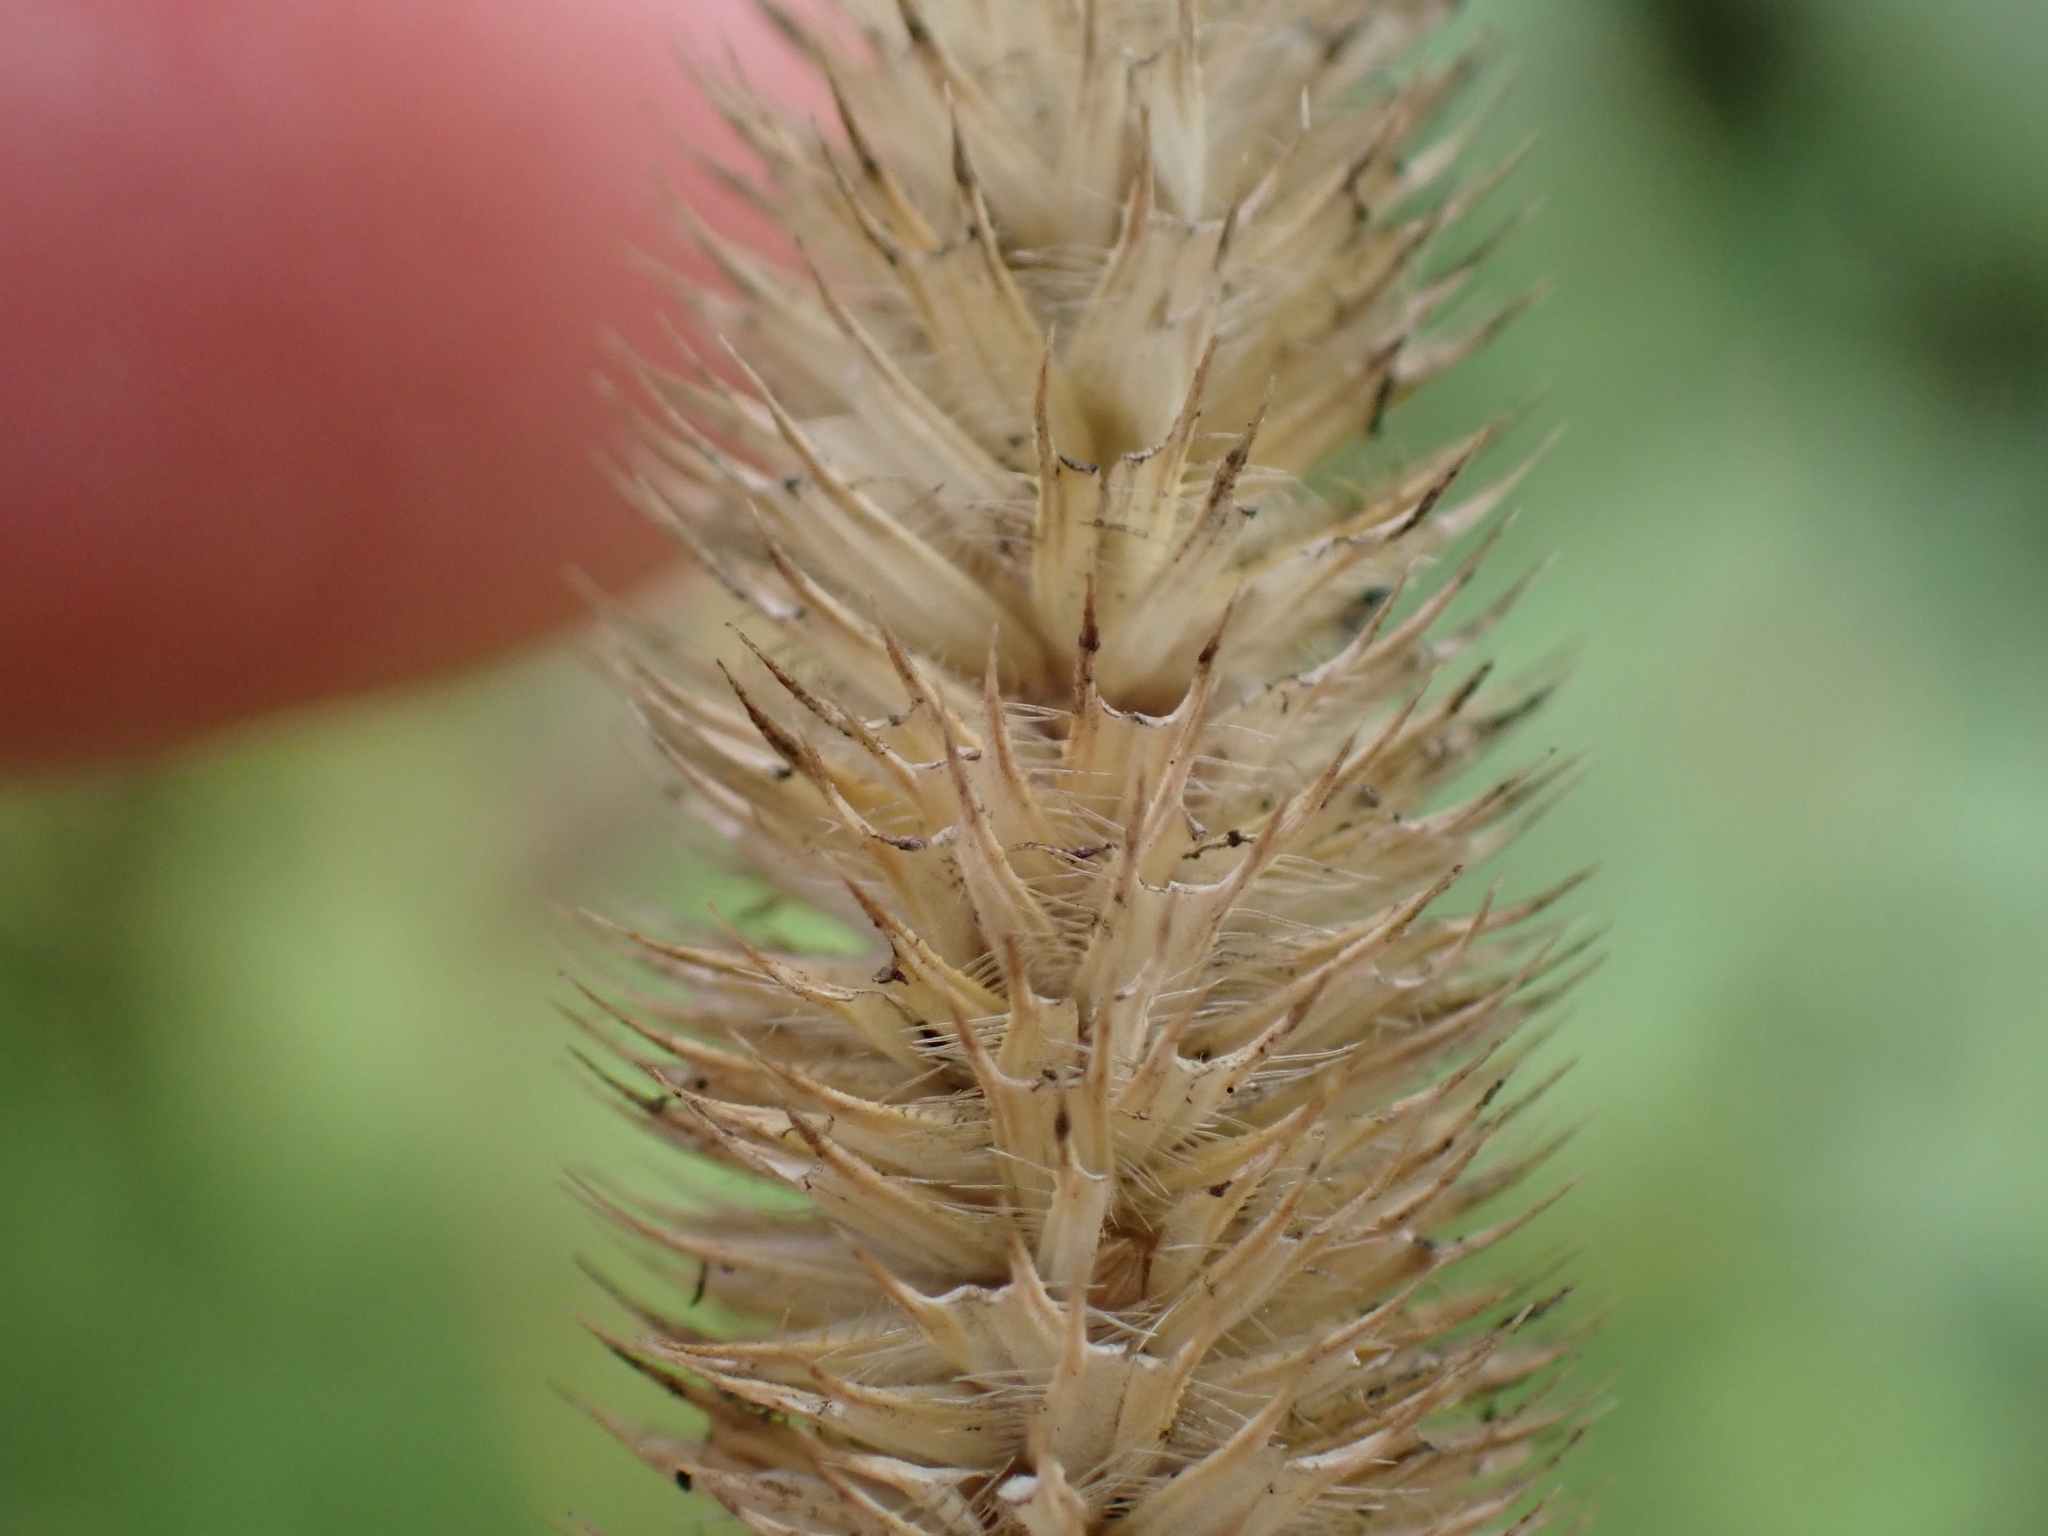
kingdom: Plantae
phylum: Tracheophyta
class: Liliopsida
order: Poales
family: Poaceae
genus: Phleum
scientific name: Phleum pratense
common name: Timothy grass
